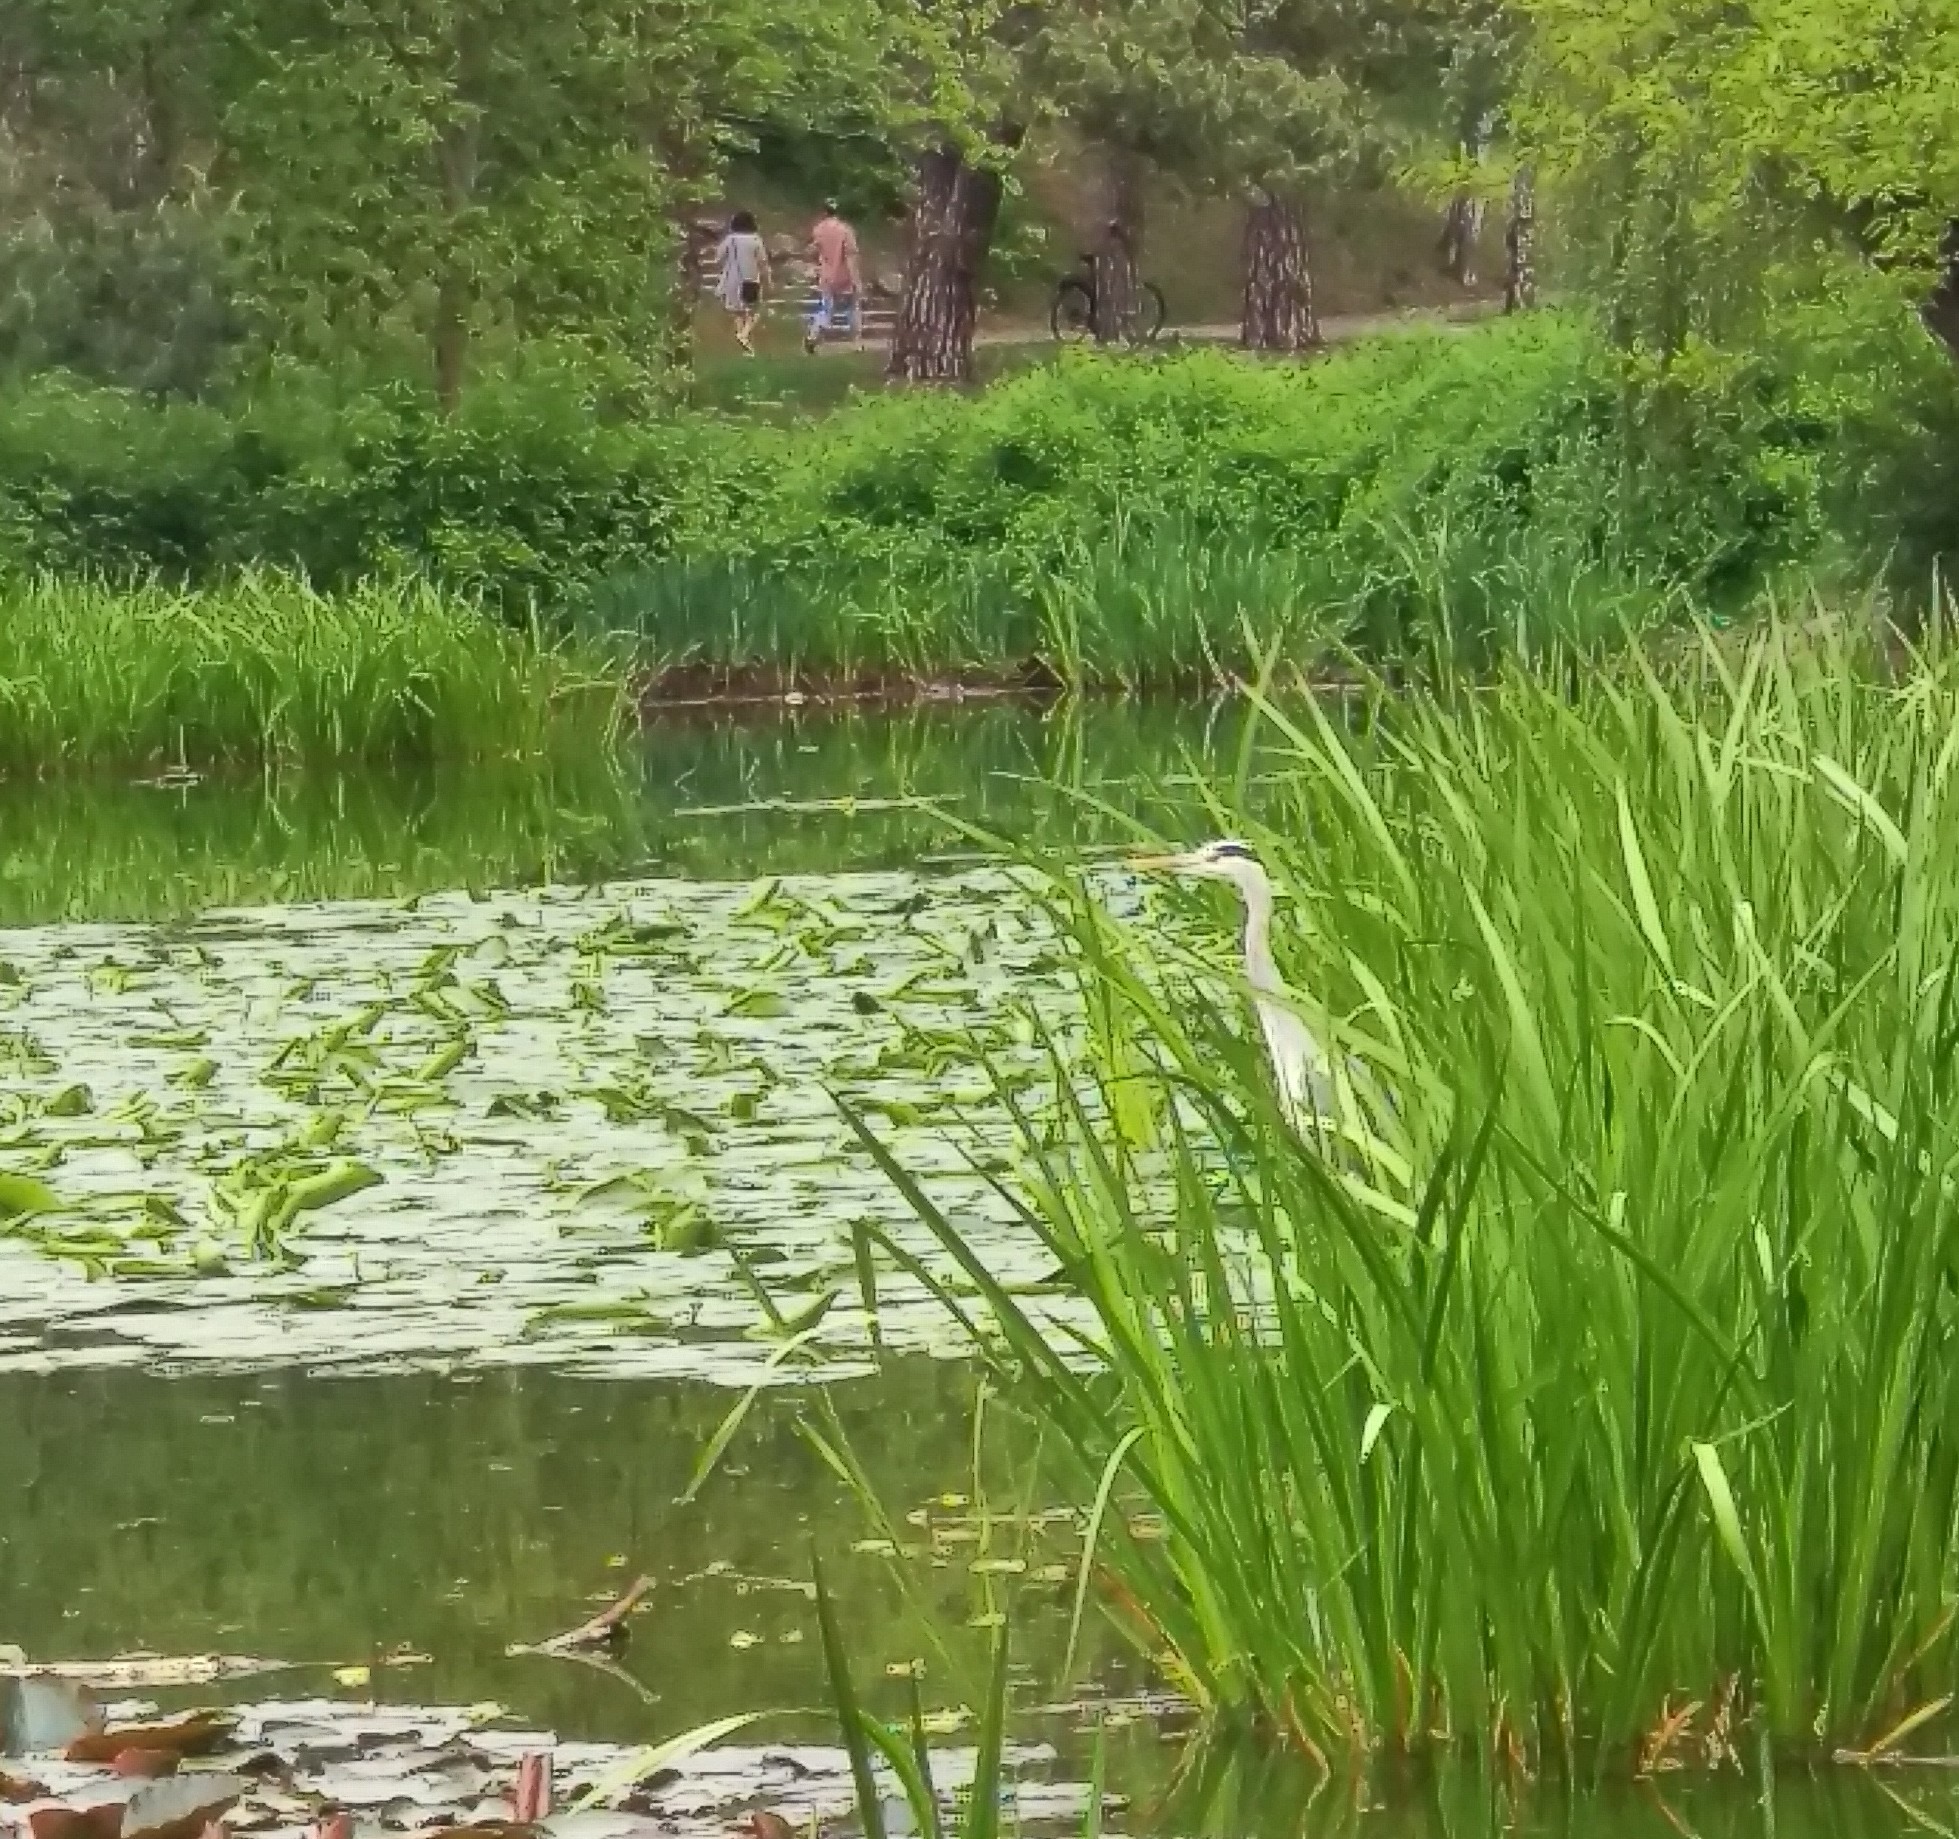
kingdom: Animalia
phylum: Chordata
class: Aves
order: Pelecaniformes
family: Ardeidae
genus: Ardea
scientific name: Ardea cinerea
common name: Grey heron
